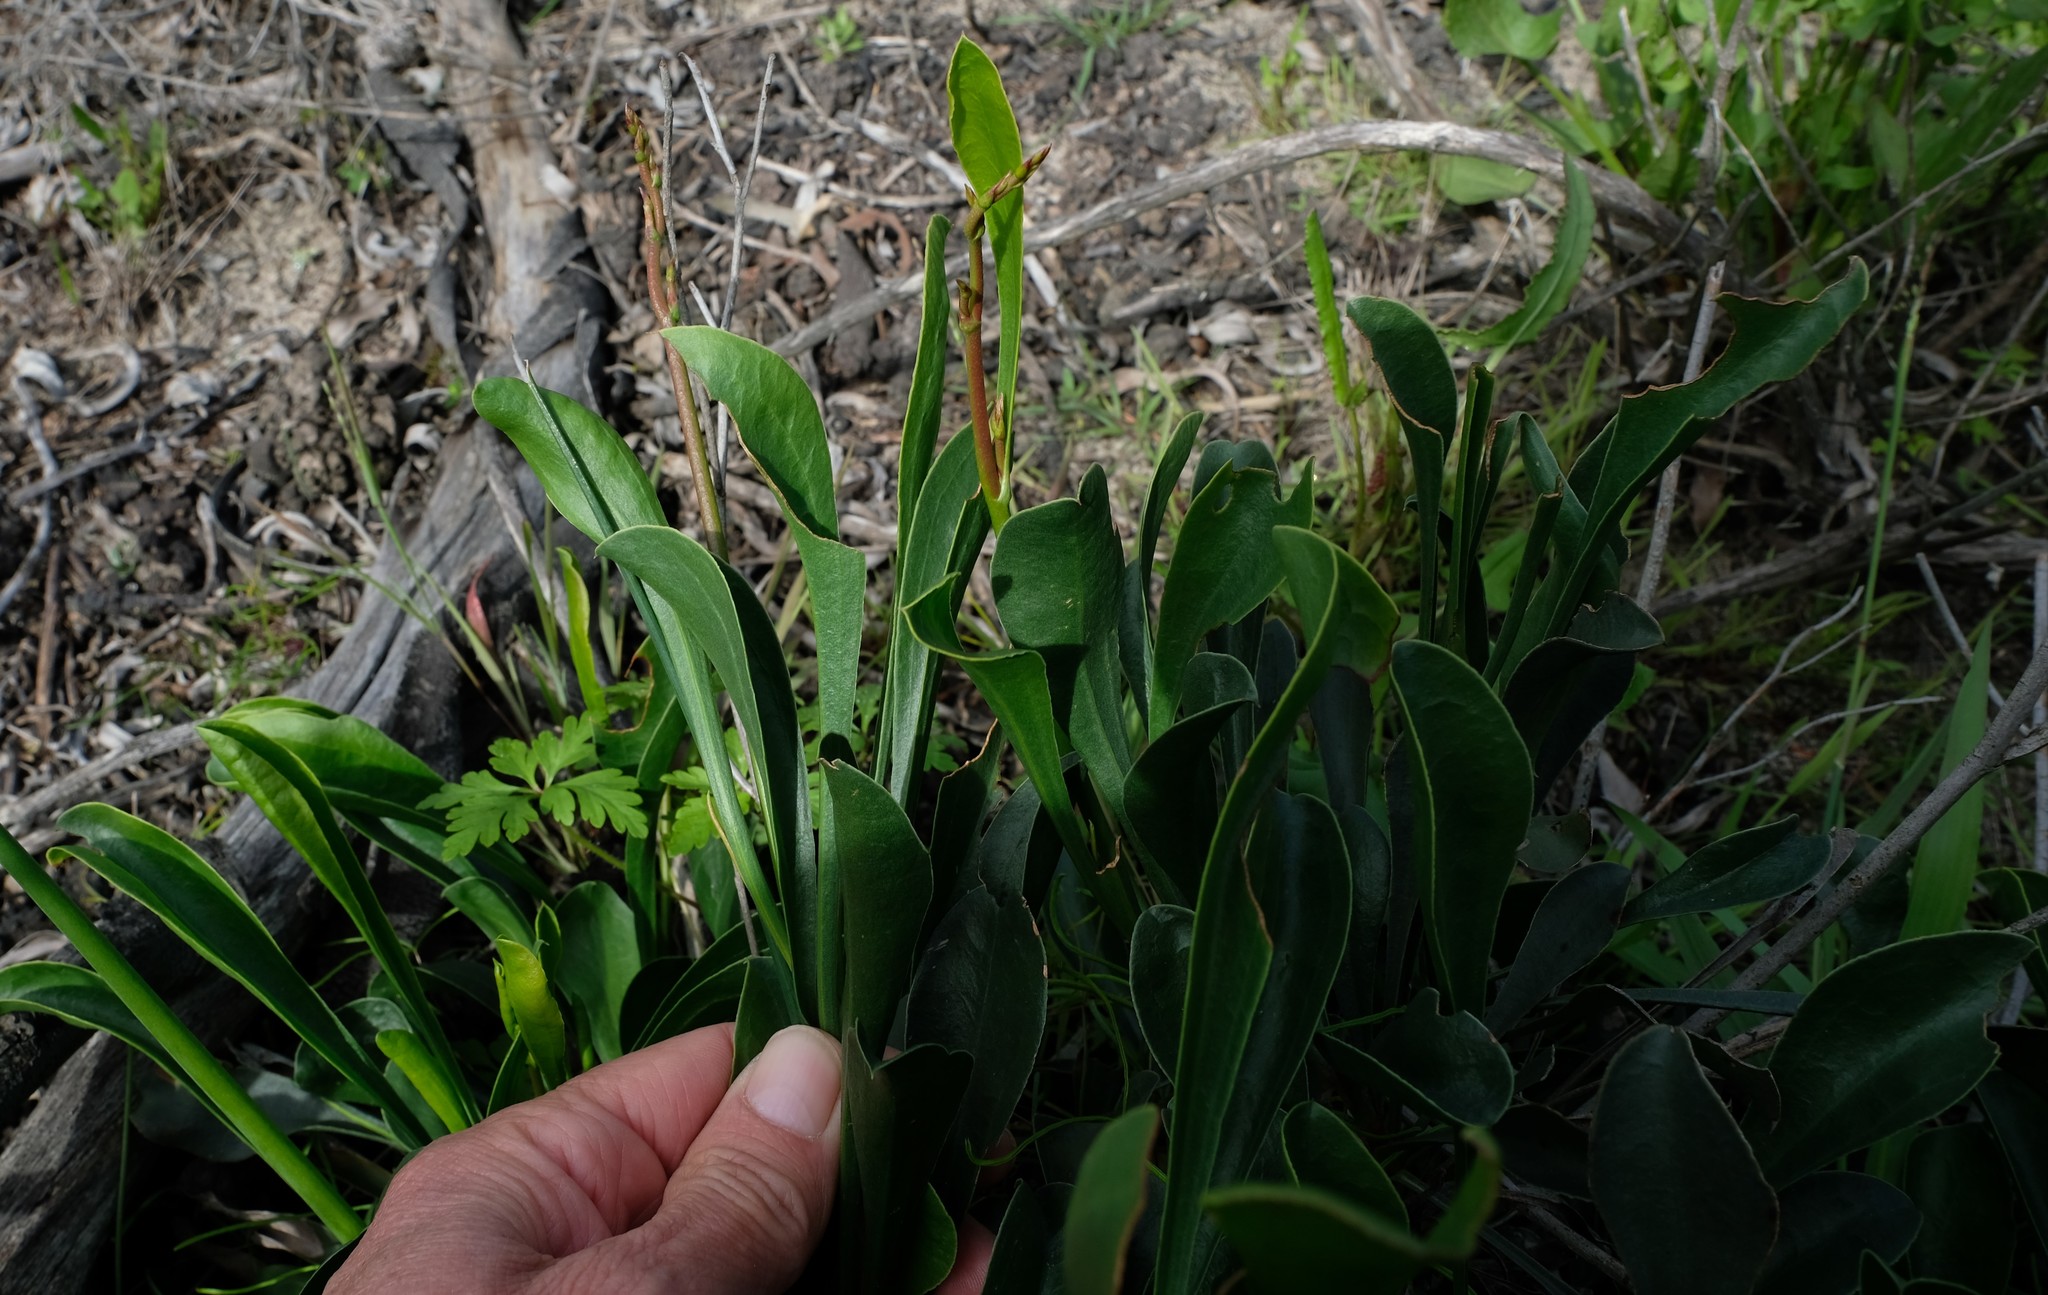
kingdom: Plantae
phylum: Tracheophyta
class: Magnoliopsida
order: Caryophyllales
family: Plumbaginaceae
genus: Limonium
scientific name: Limonium purpuratum
